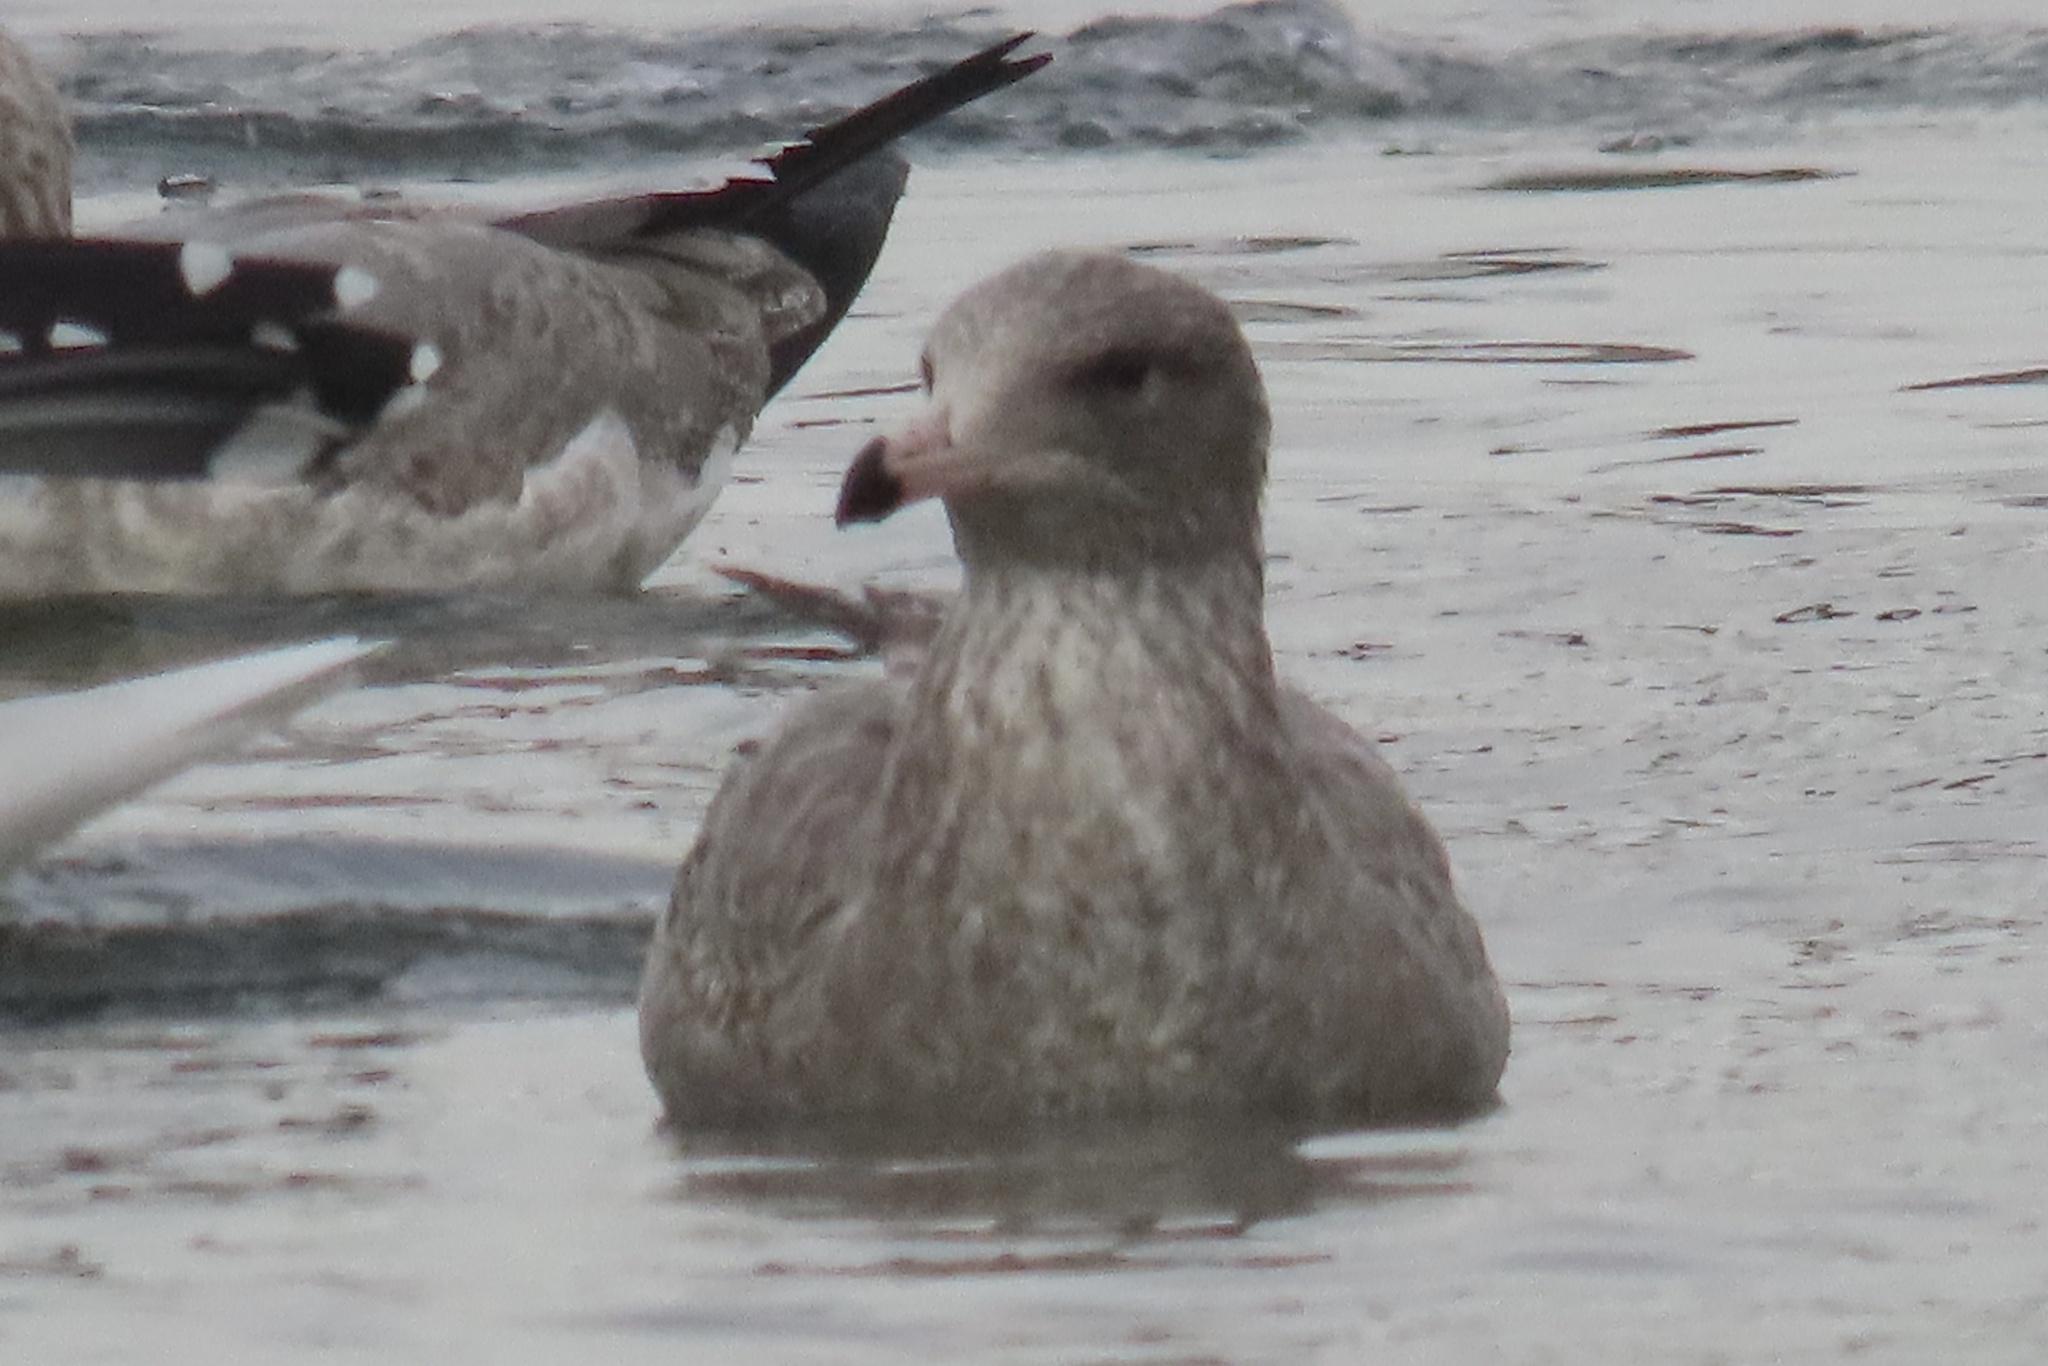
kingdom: Animalia
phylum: Chordata
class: Aves
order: Charadriiformes
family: Laridae
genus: Larus
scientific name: Larus californicus
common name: California gull
